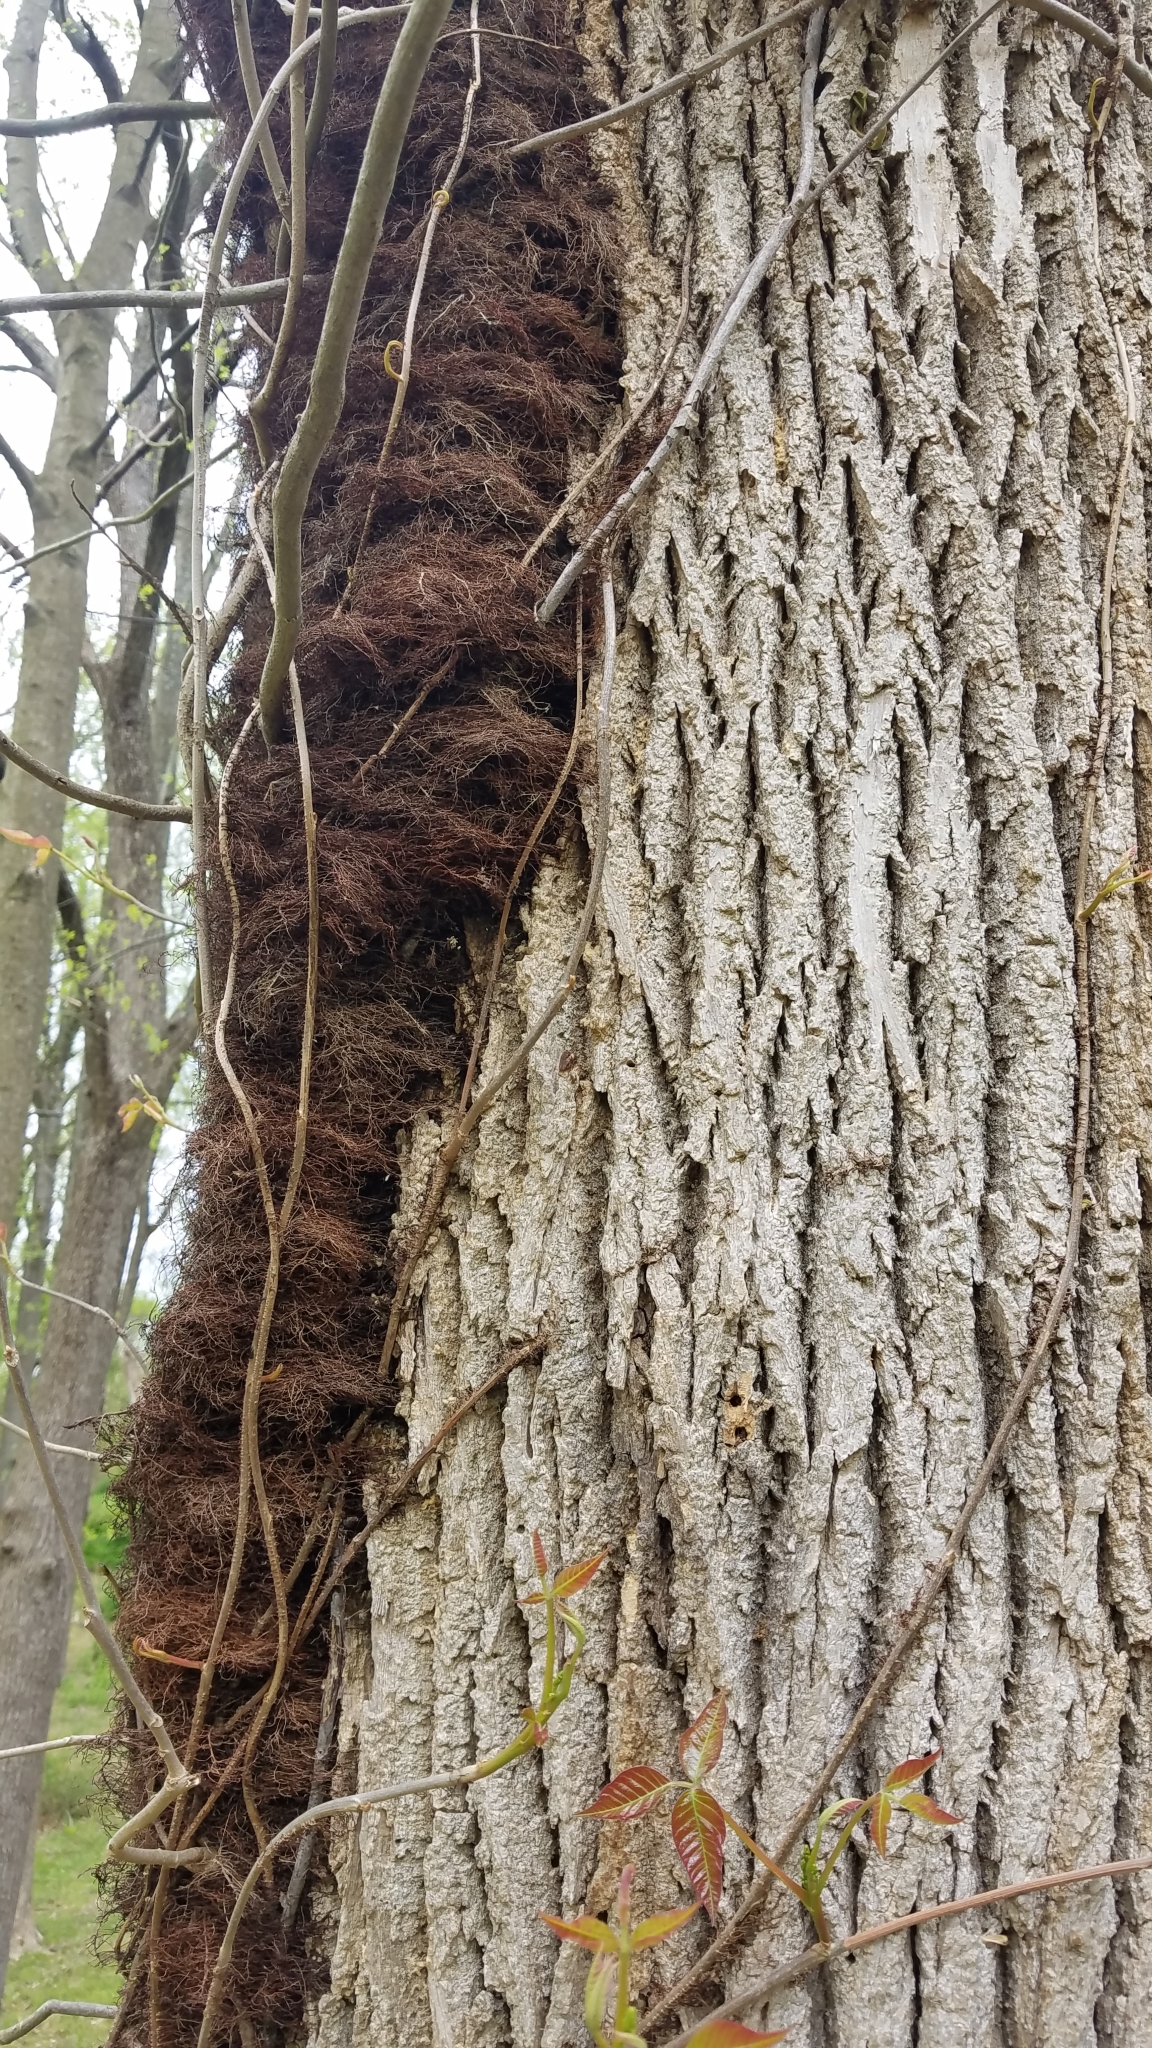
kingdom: Plantae
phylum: Tracheophyta
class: Magnoliopsida
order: Sapindales
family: Anacardiaceae
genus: Toxicodendron
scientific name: Toxicodendron radicans
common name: Poison ivy
